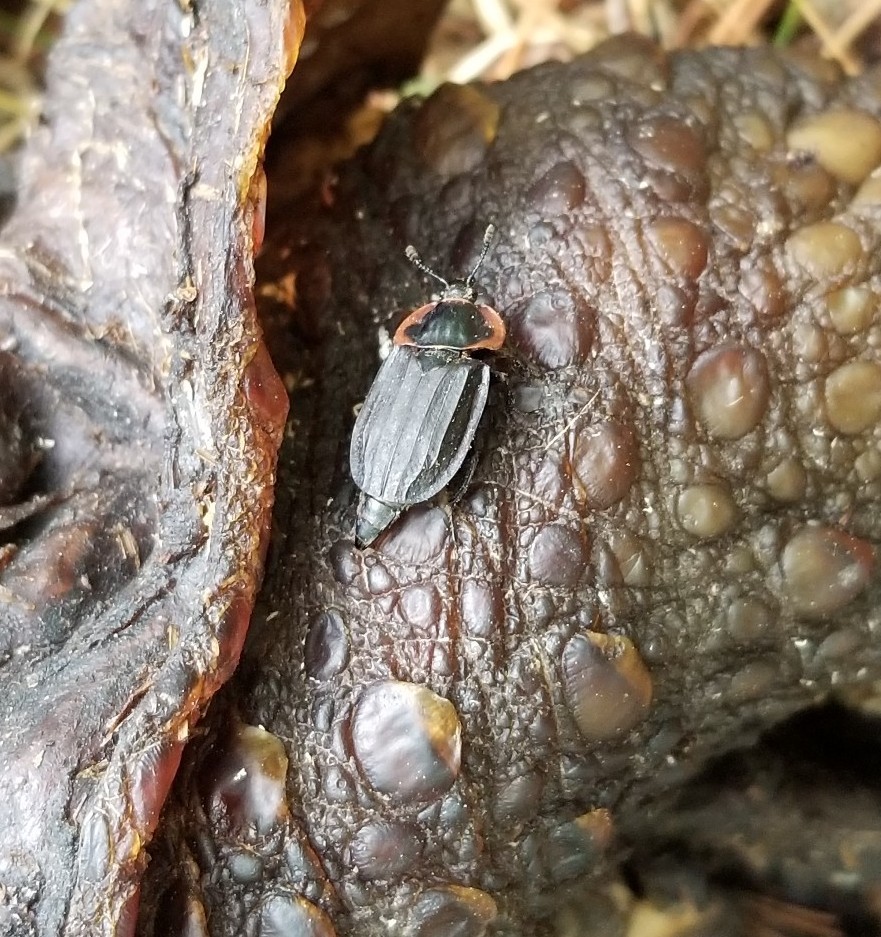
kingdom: Animalia
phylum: Arthropoda
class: Insecta
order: Coleoptera
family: Staphylinidae
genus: Oiceoptoma
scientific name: Oiceoptoma noveboracense
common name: Margined carrion beetle
